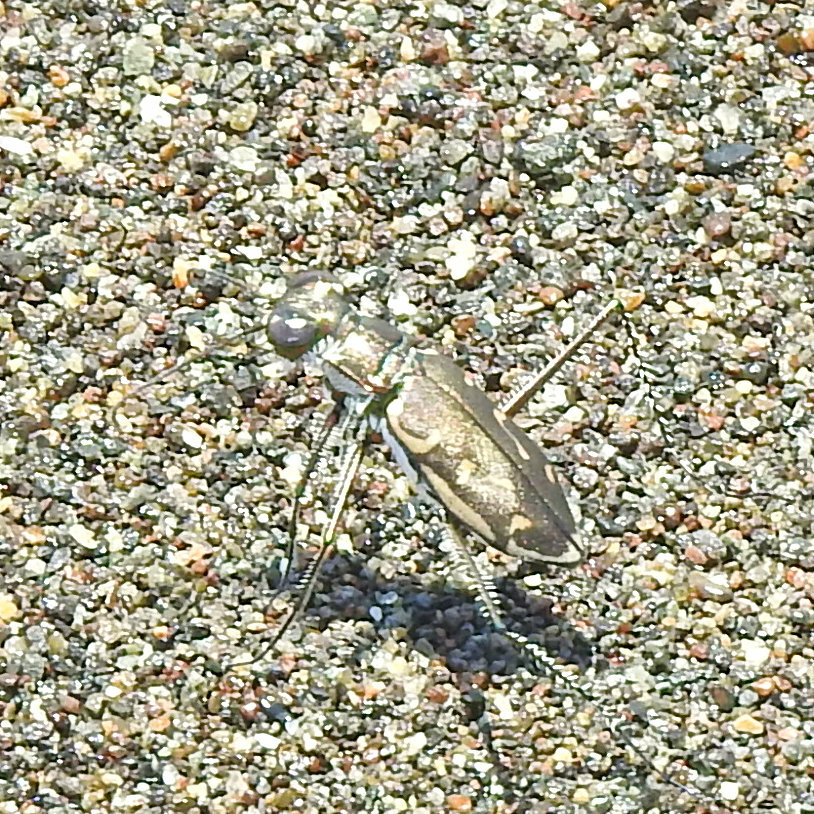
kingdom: Animalia
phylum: Arthropoda
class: Insecta
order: Coleoptera
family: Carabidae
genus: Opilidia
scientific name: Opilidia macrocnema
